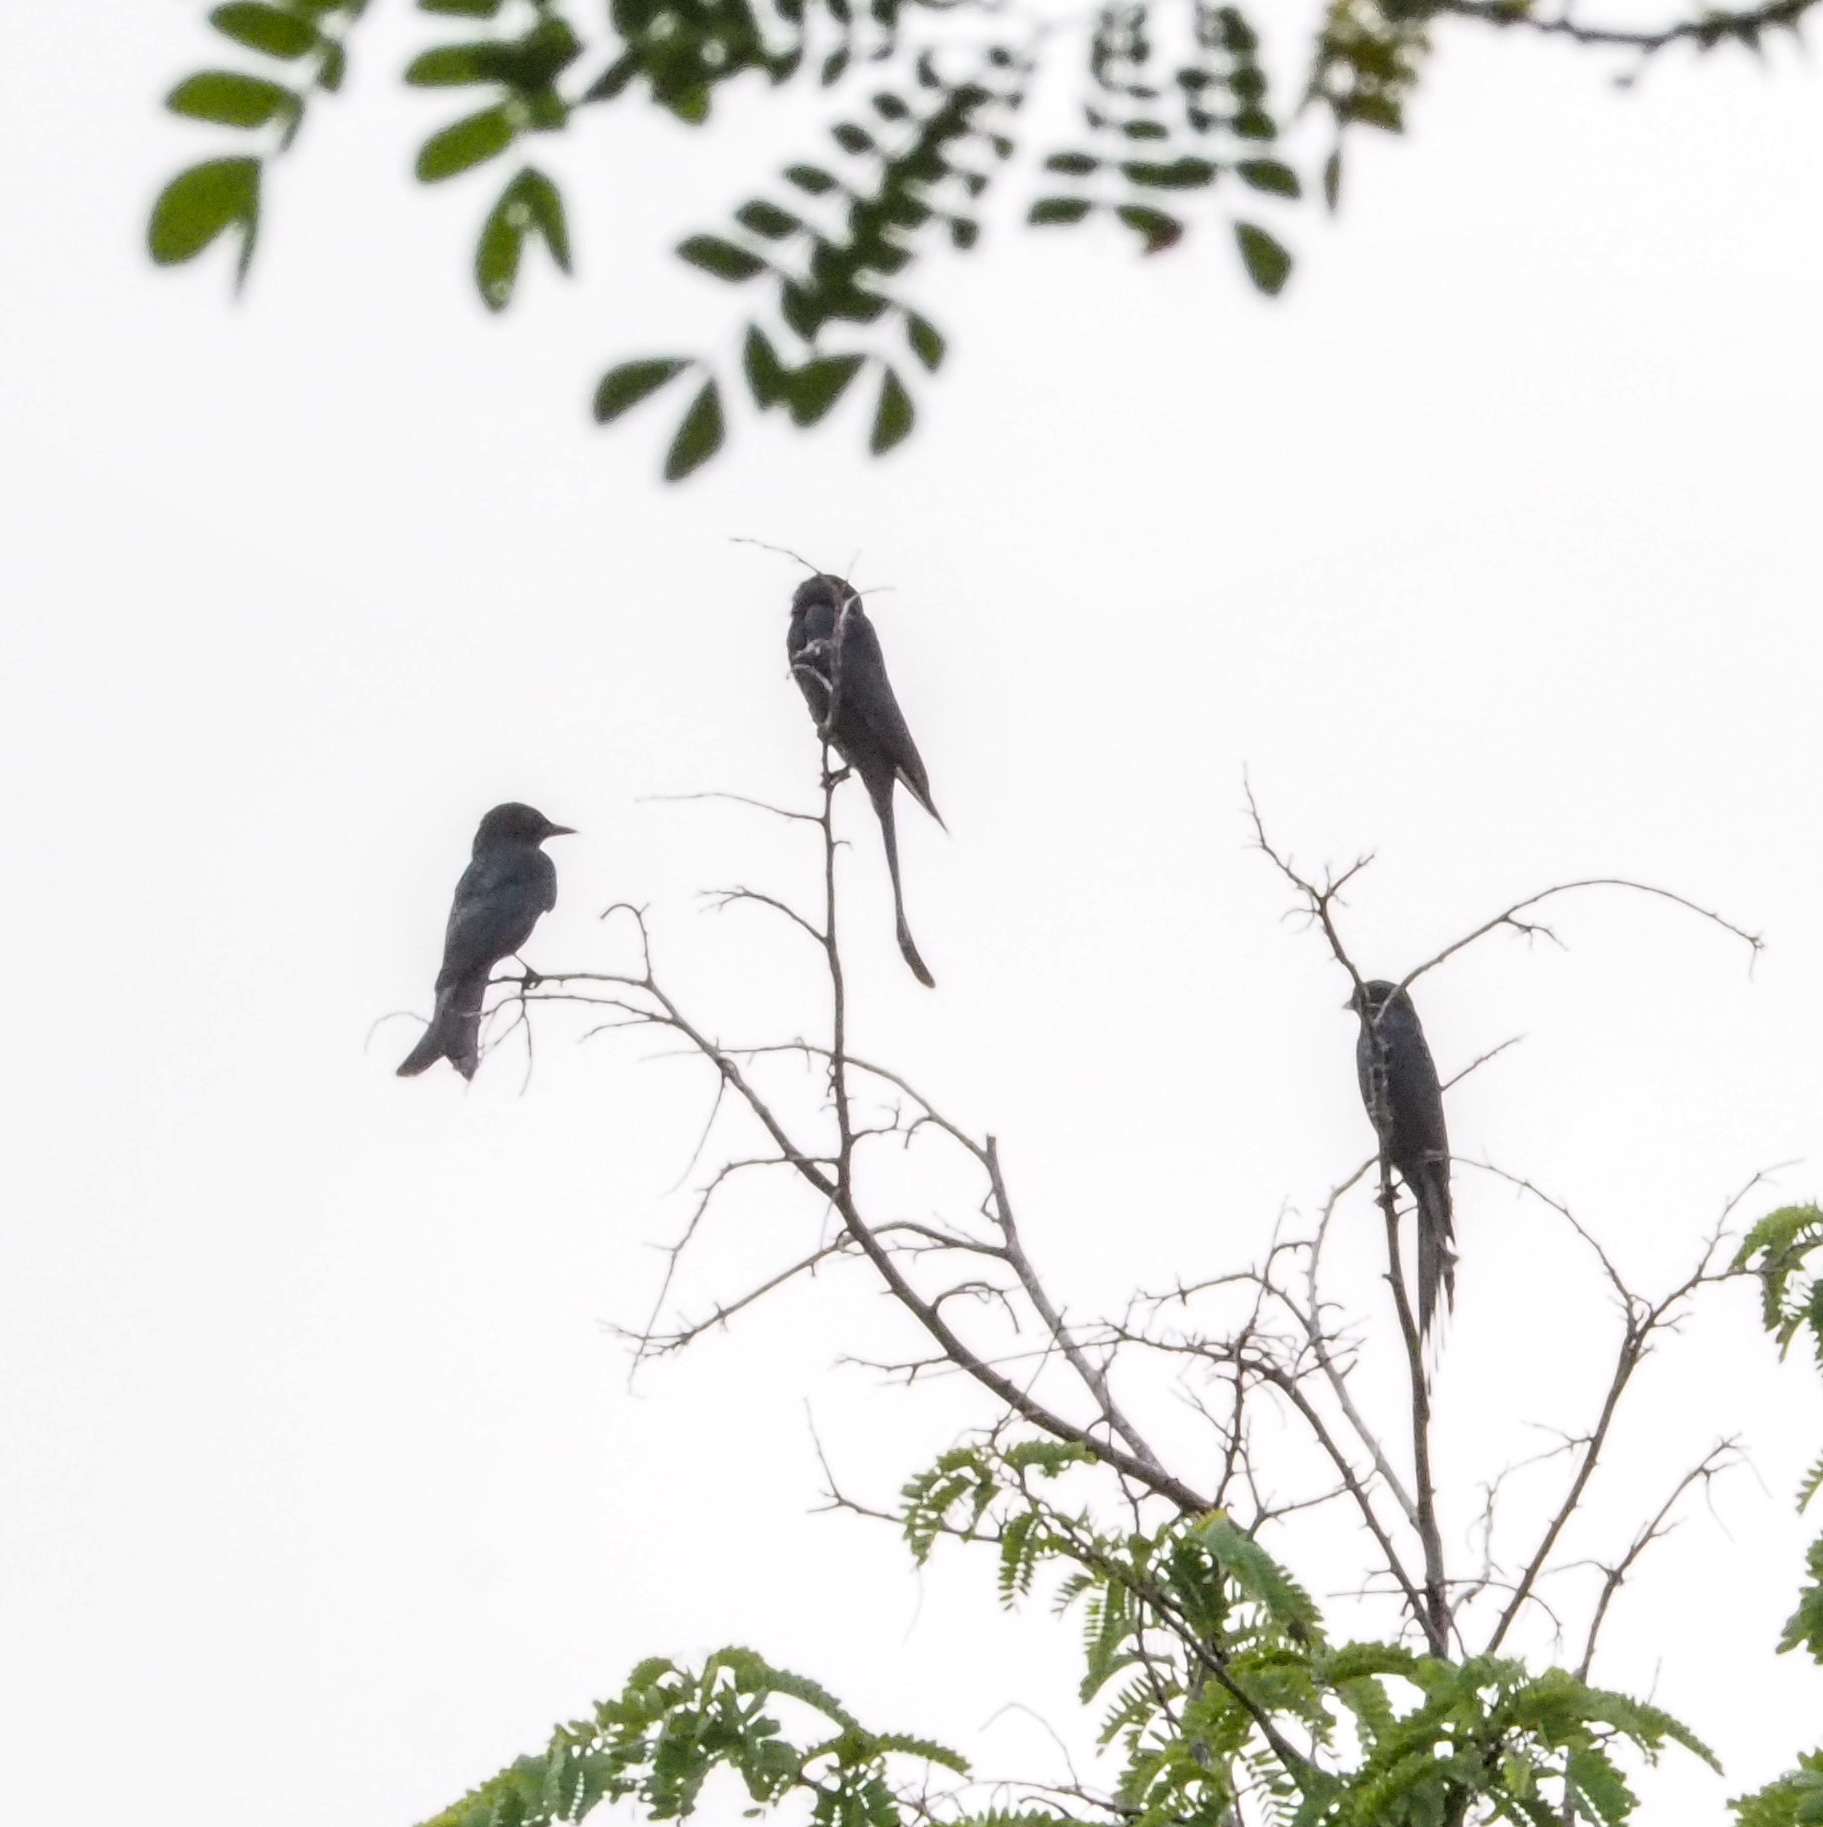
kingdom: Animalia
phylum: Chordata
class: Aves
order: Passeriformes
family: Dicruridae
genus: Dicrurus
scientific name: Dicrurus macrocercus
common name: Black drongo
